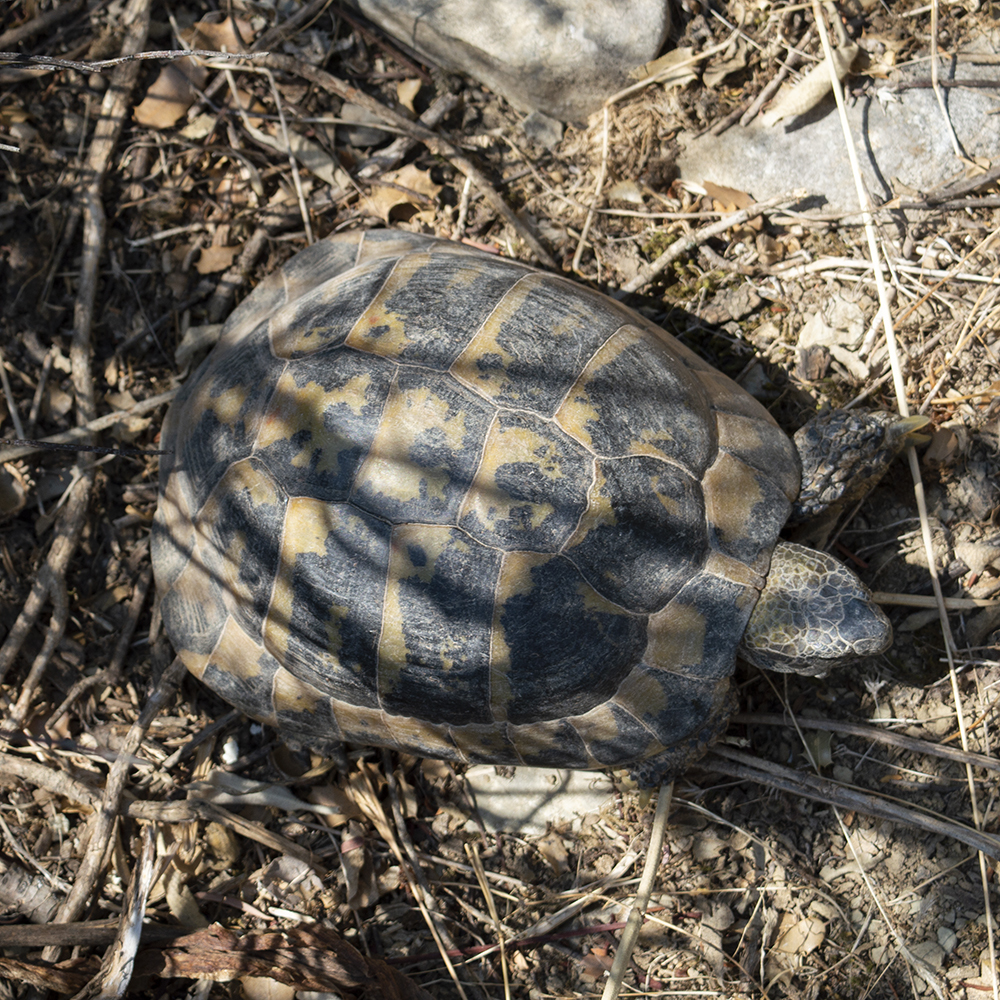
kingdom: Animalia
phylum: Chordata
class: Testudines
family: Testudinidae
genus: Testudo
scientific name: Testudo hermanni
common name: Hermann's tortoise
